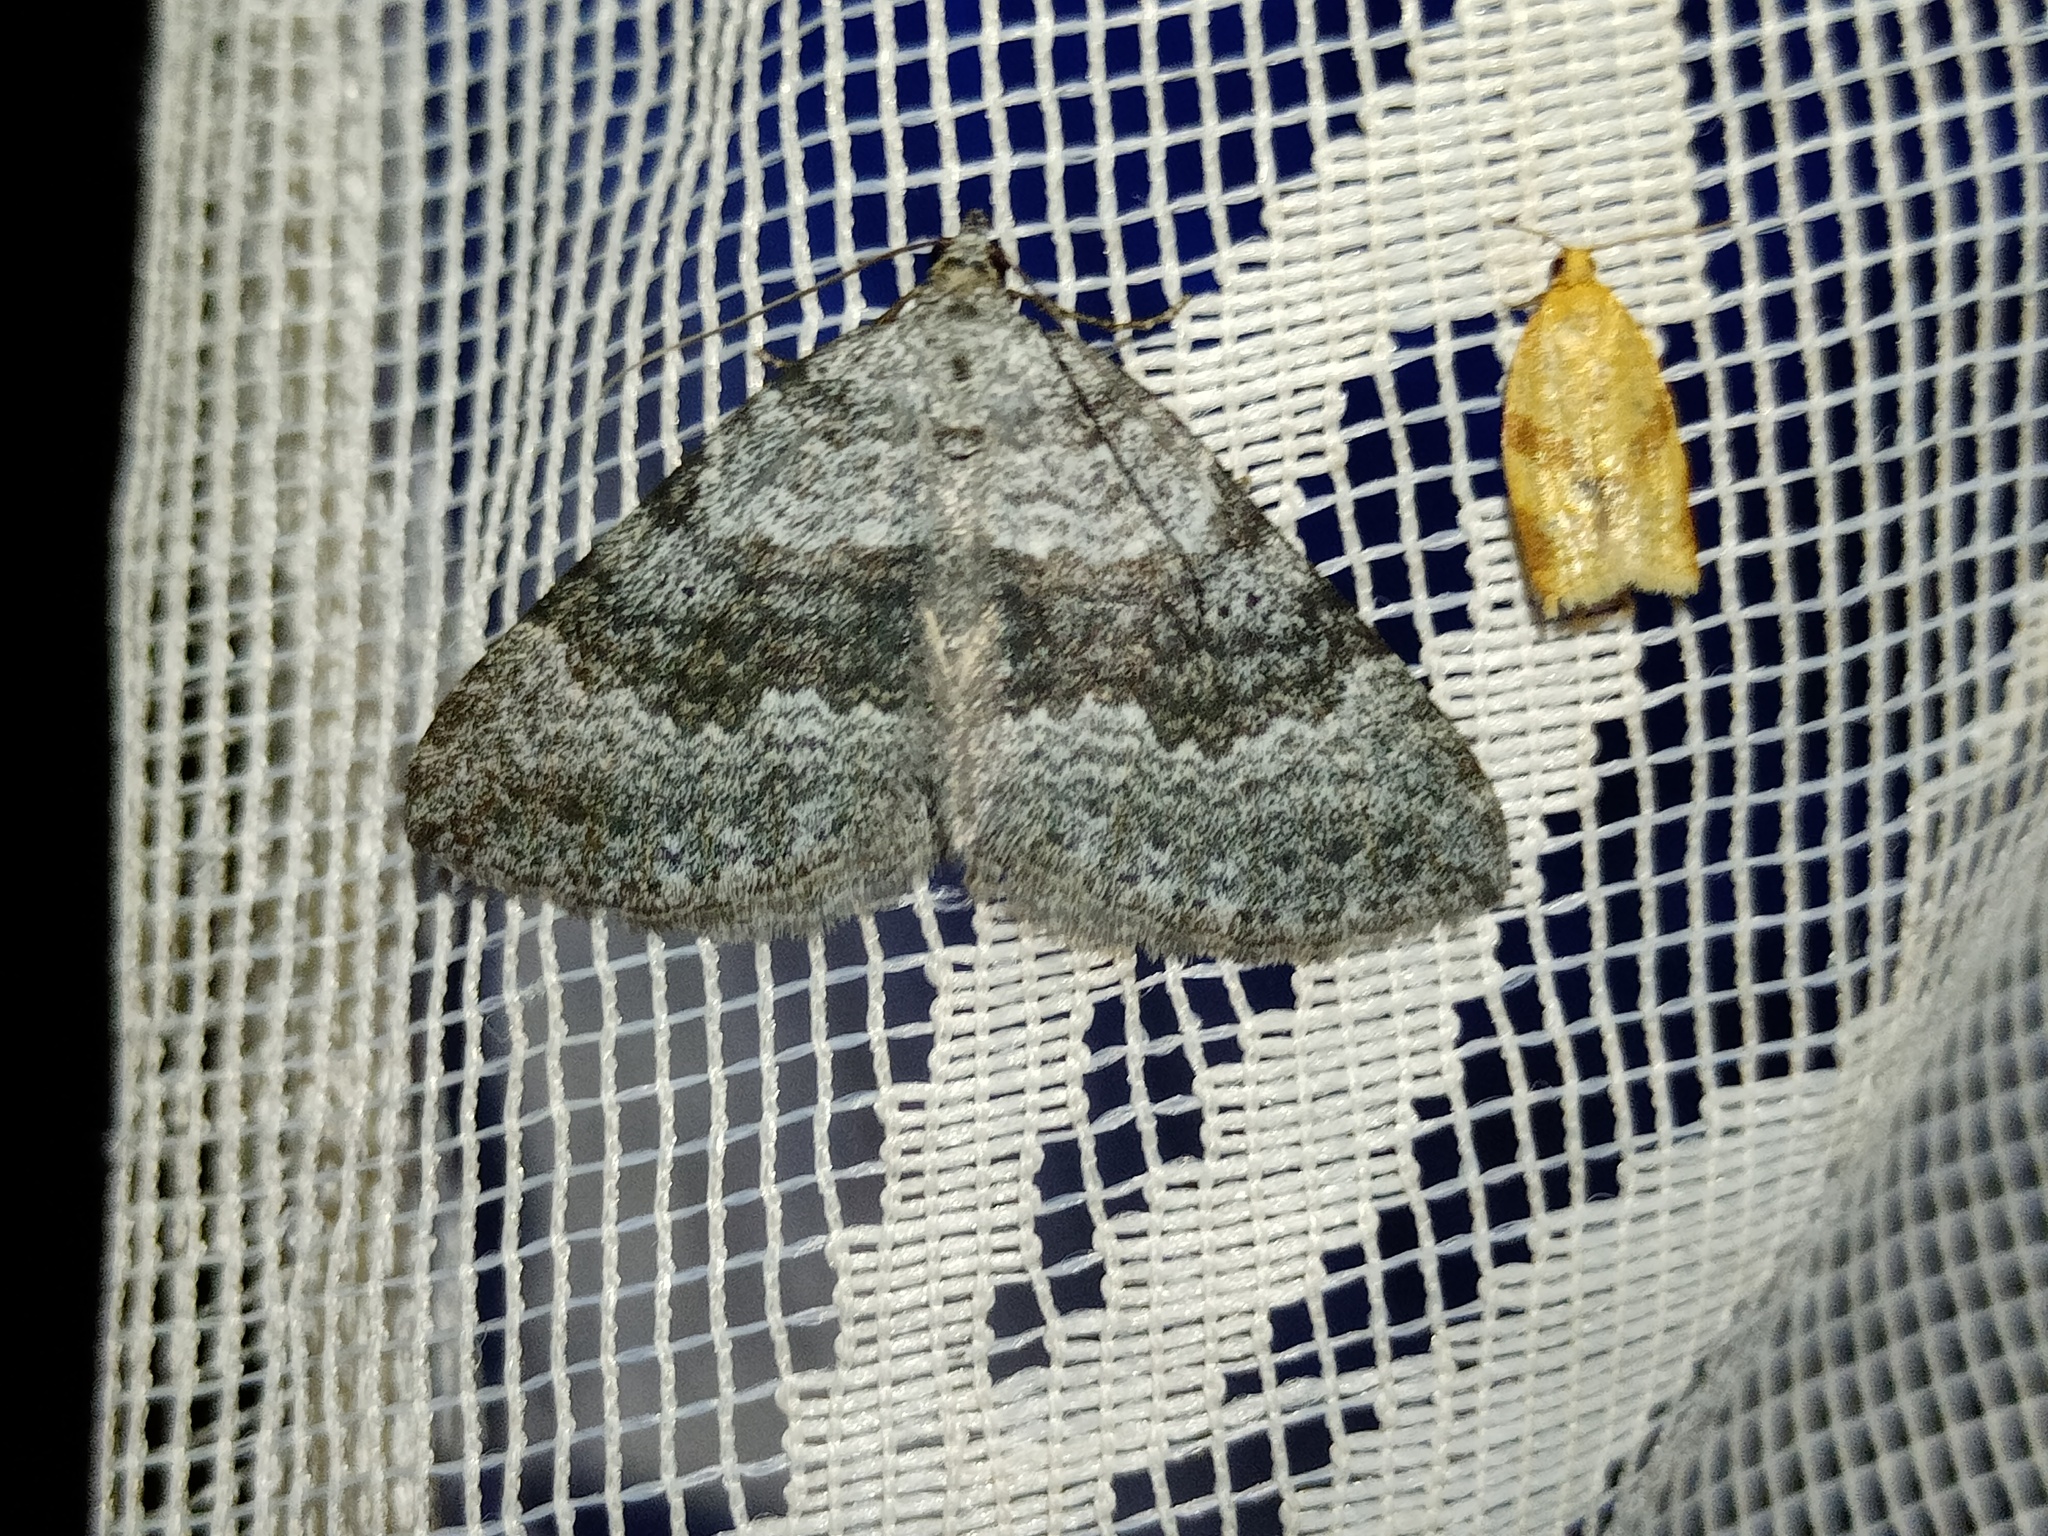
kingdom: Animalia
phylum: Arthropoda
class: Insecta
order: Lepidoptera
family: Geometridae
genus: Scotopteryx
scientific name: Scotopteryx bipunctaria
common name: Chalk carpet
